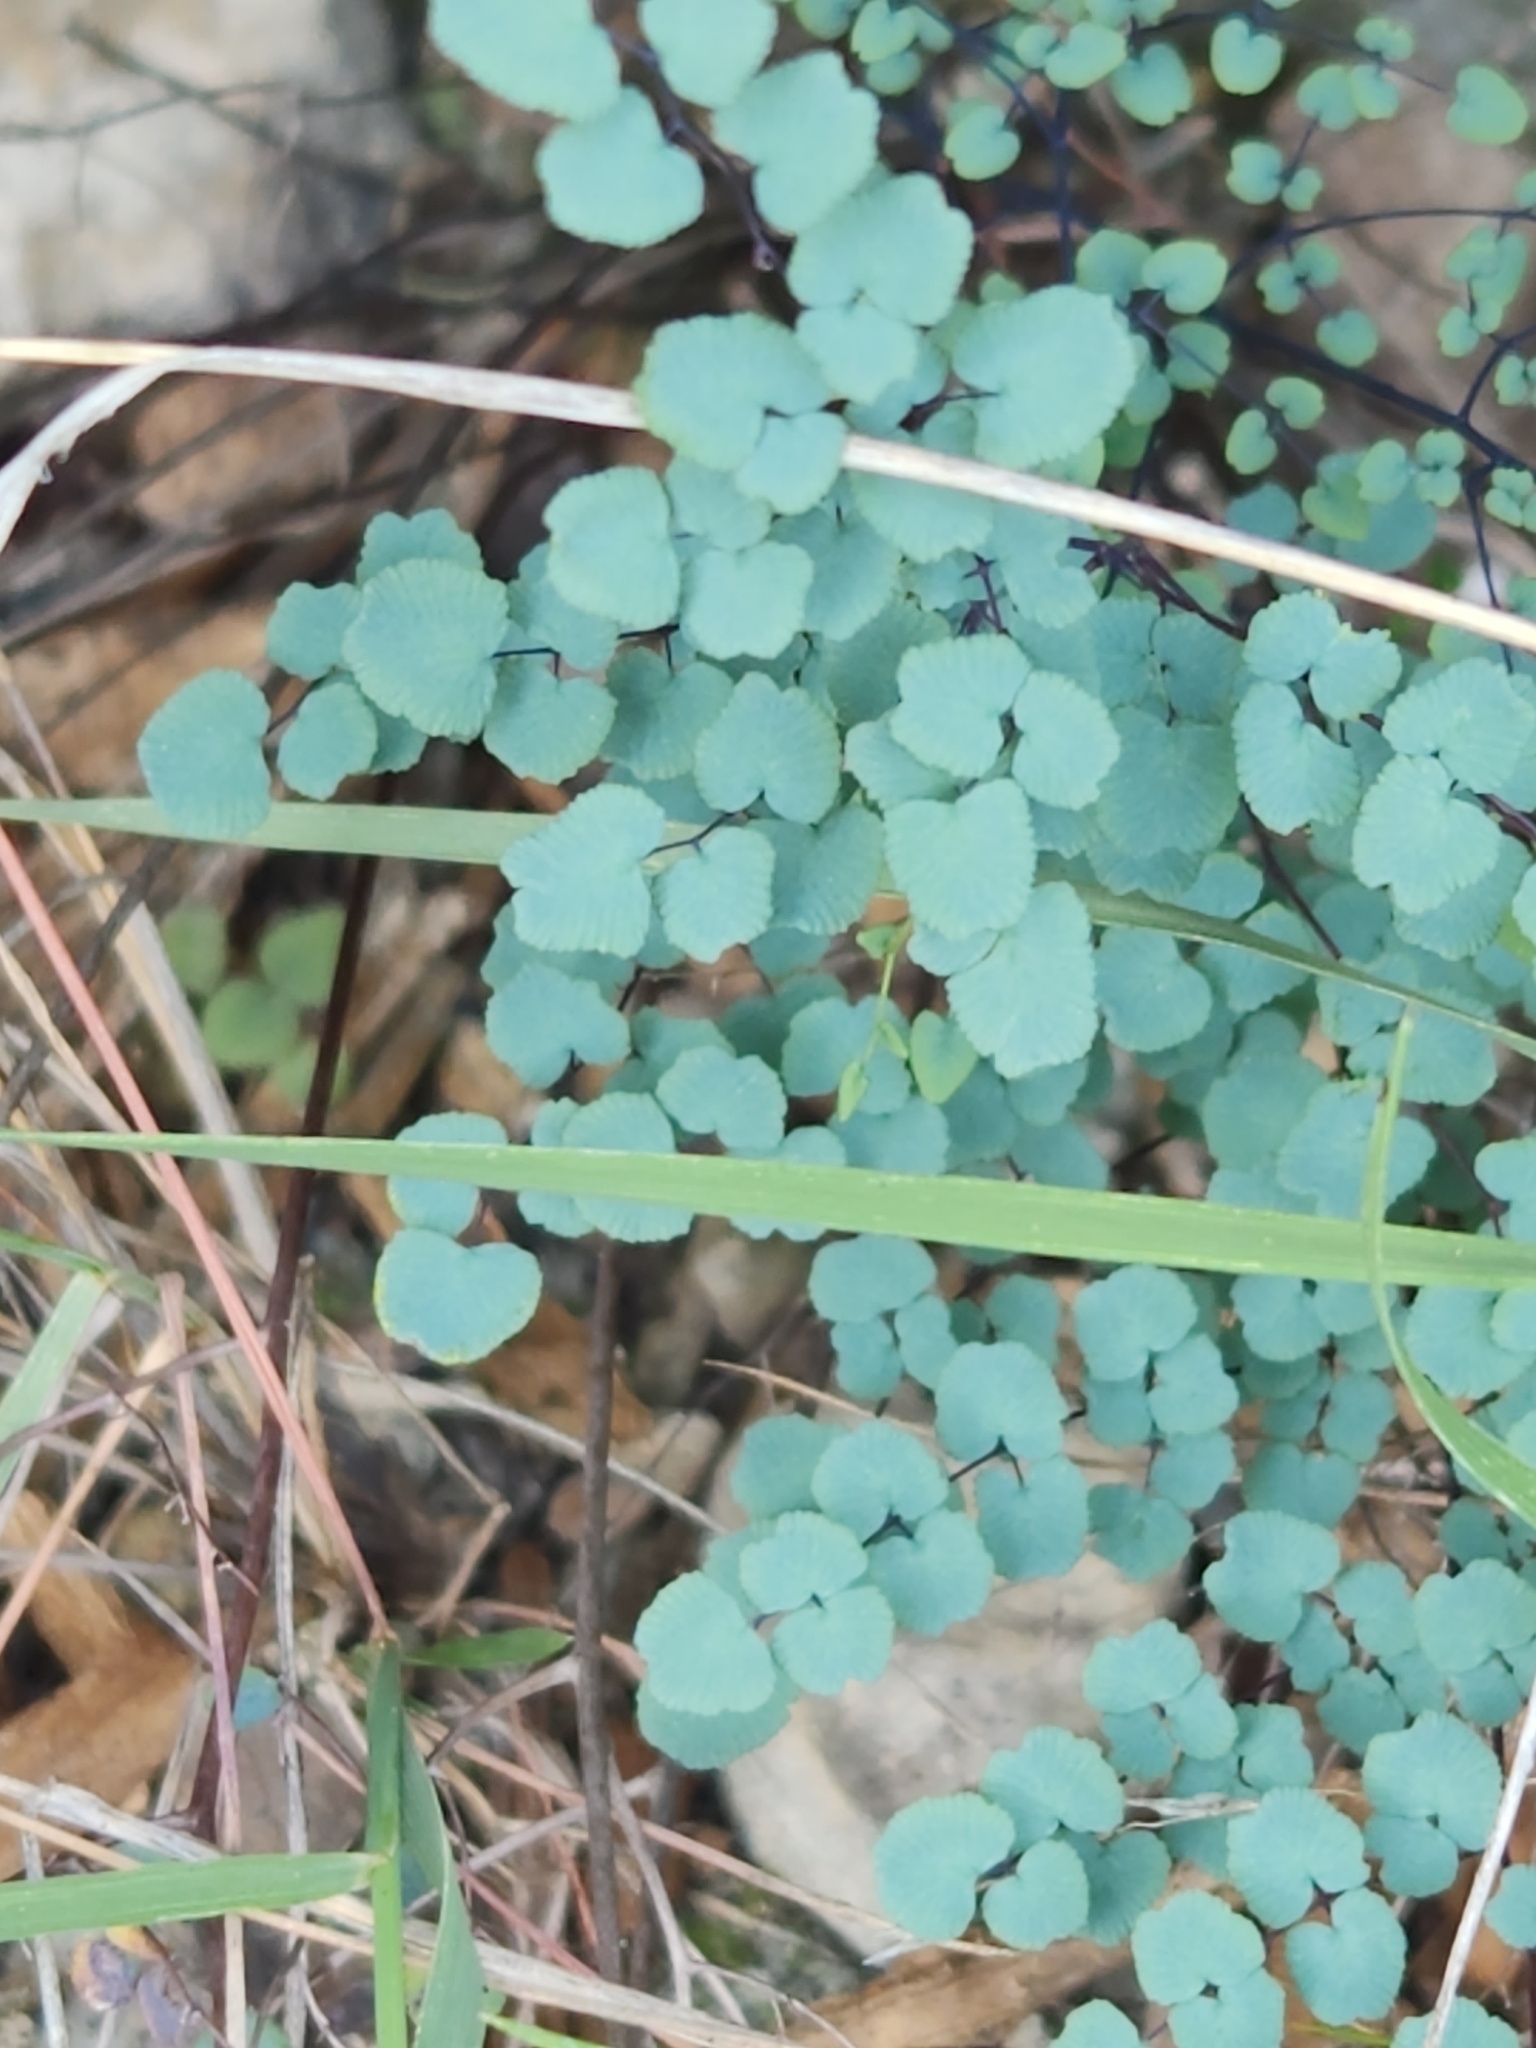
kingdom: Plantae
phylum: Tracheophyta
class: Polypodiopsida
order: Polypodiales
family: Pteridaceae
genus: Argyrochosma
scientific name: Argyrochosma microphylla
